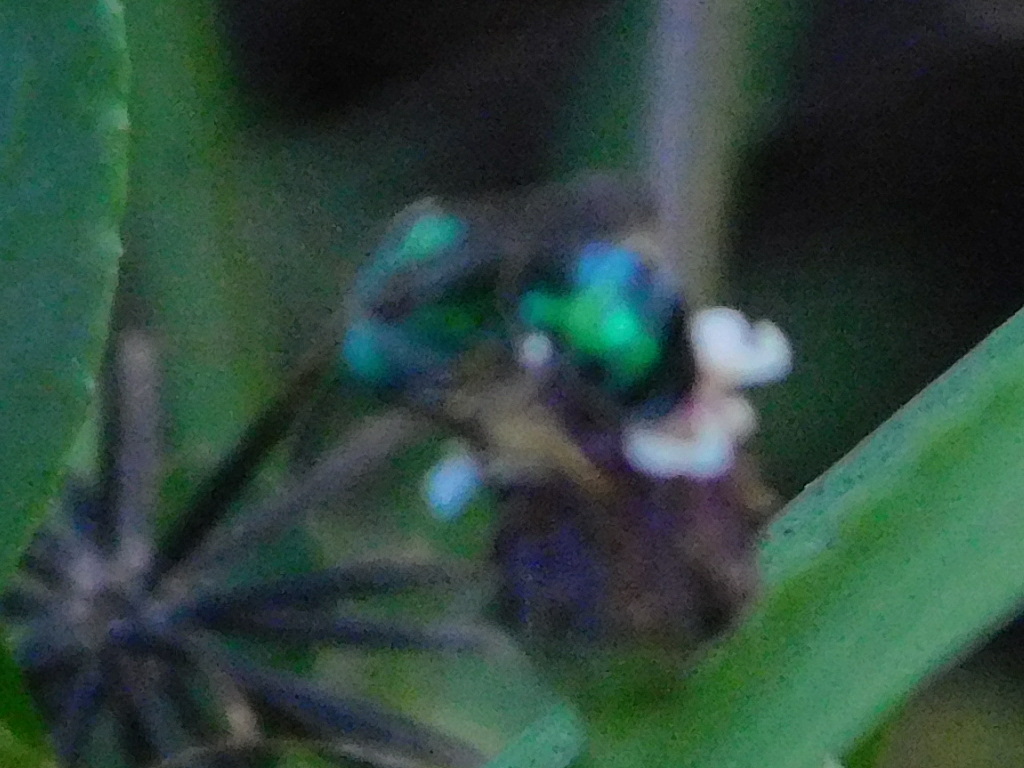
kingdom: Animalia
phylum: Arthropoda
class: Insecta
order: Hymenoptera
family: Halictidae
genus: Agapostemon
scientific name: Agapostemon splendens
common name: Brown-winged striped sweat bee
